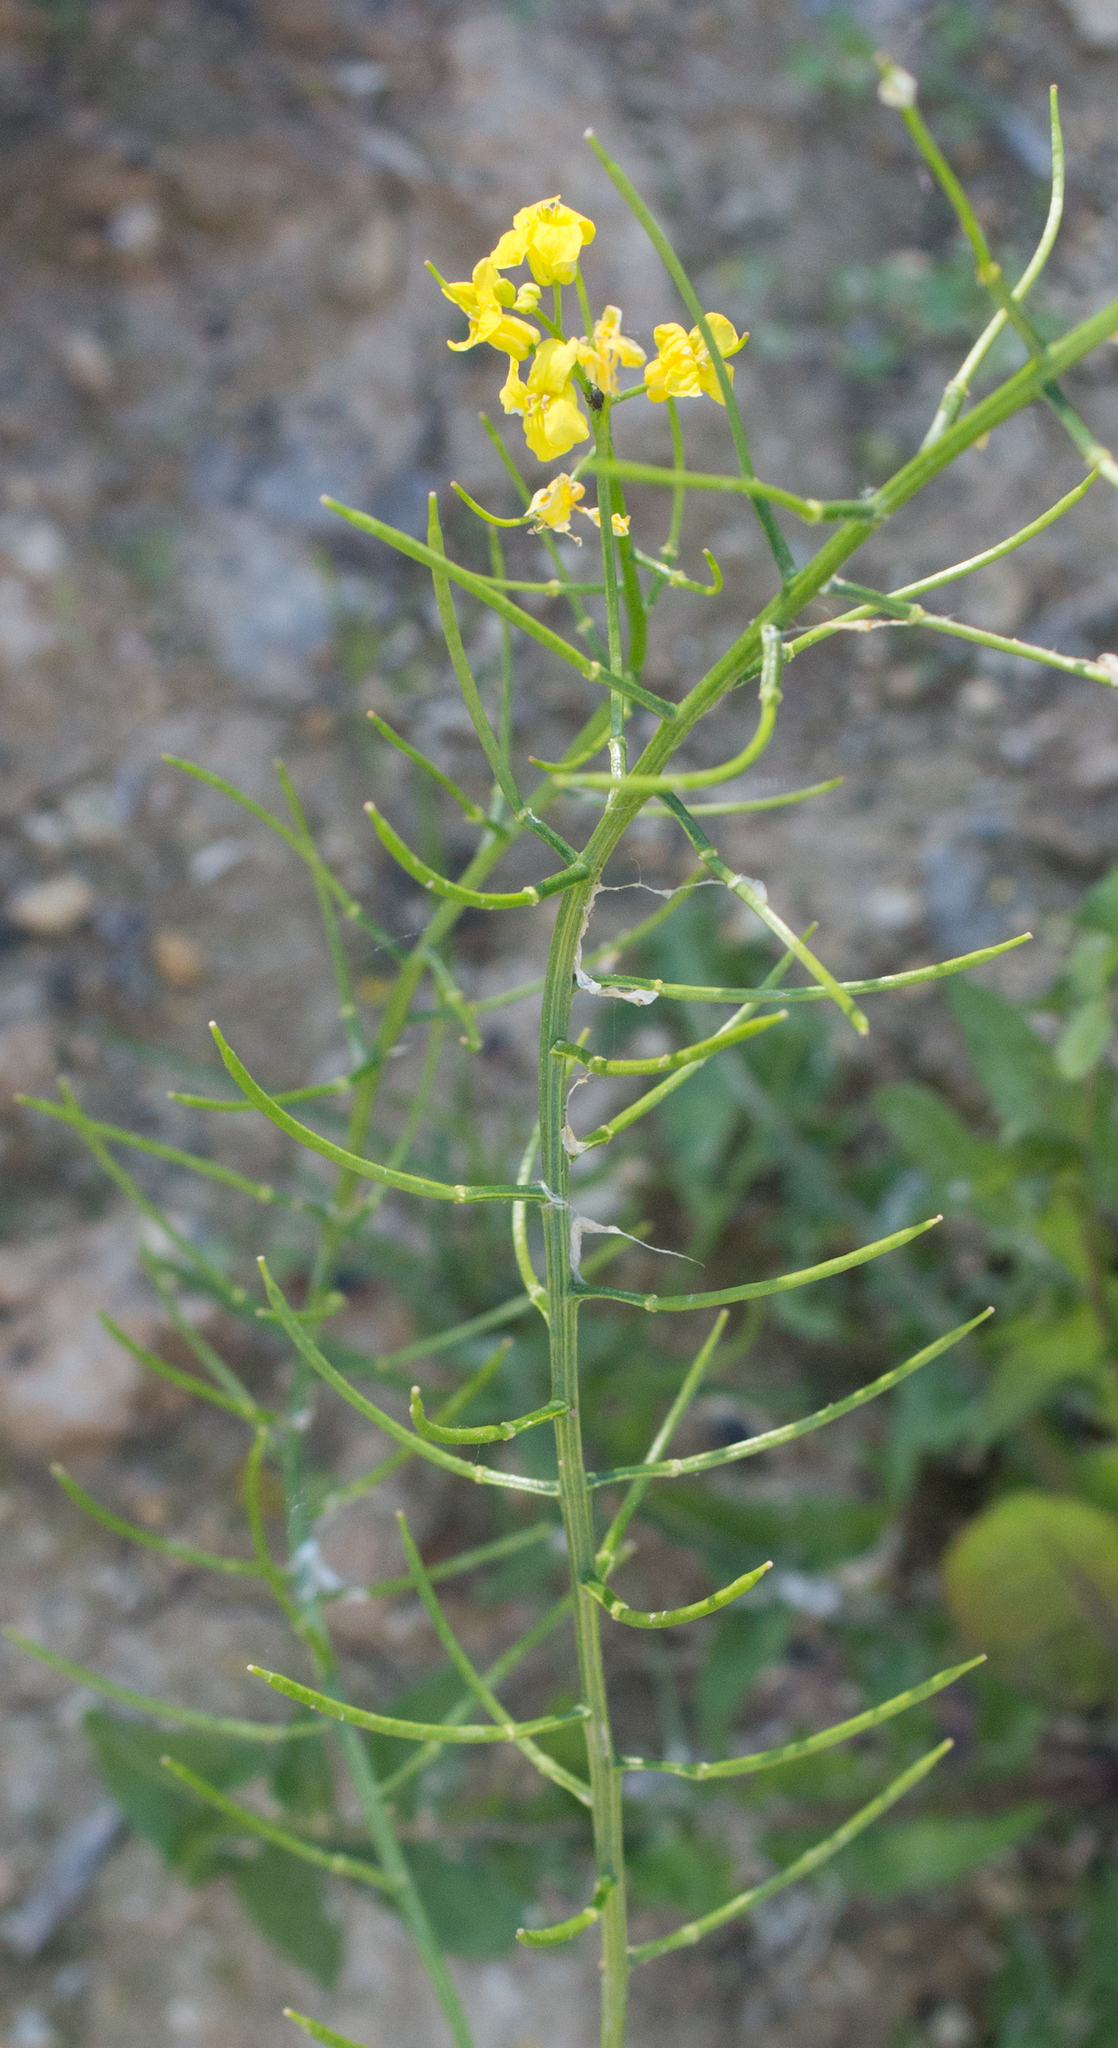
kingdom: Plantae
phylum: Tracheophyta
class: Magnoliopsida
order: Brassicales
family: Brassicaceae
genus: Barbarea
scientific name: Barbarea vulgaris
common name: Cressy-greens
